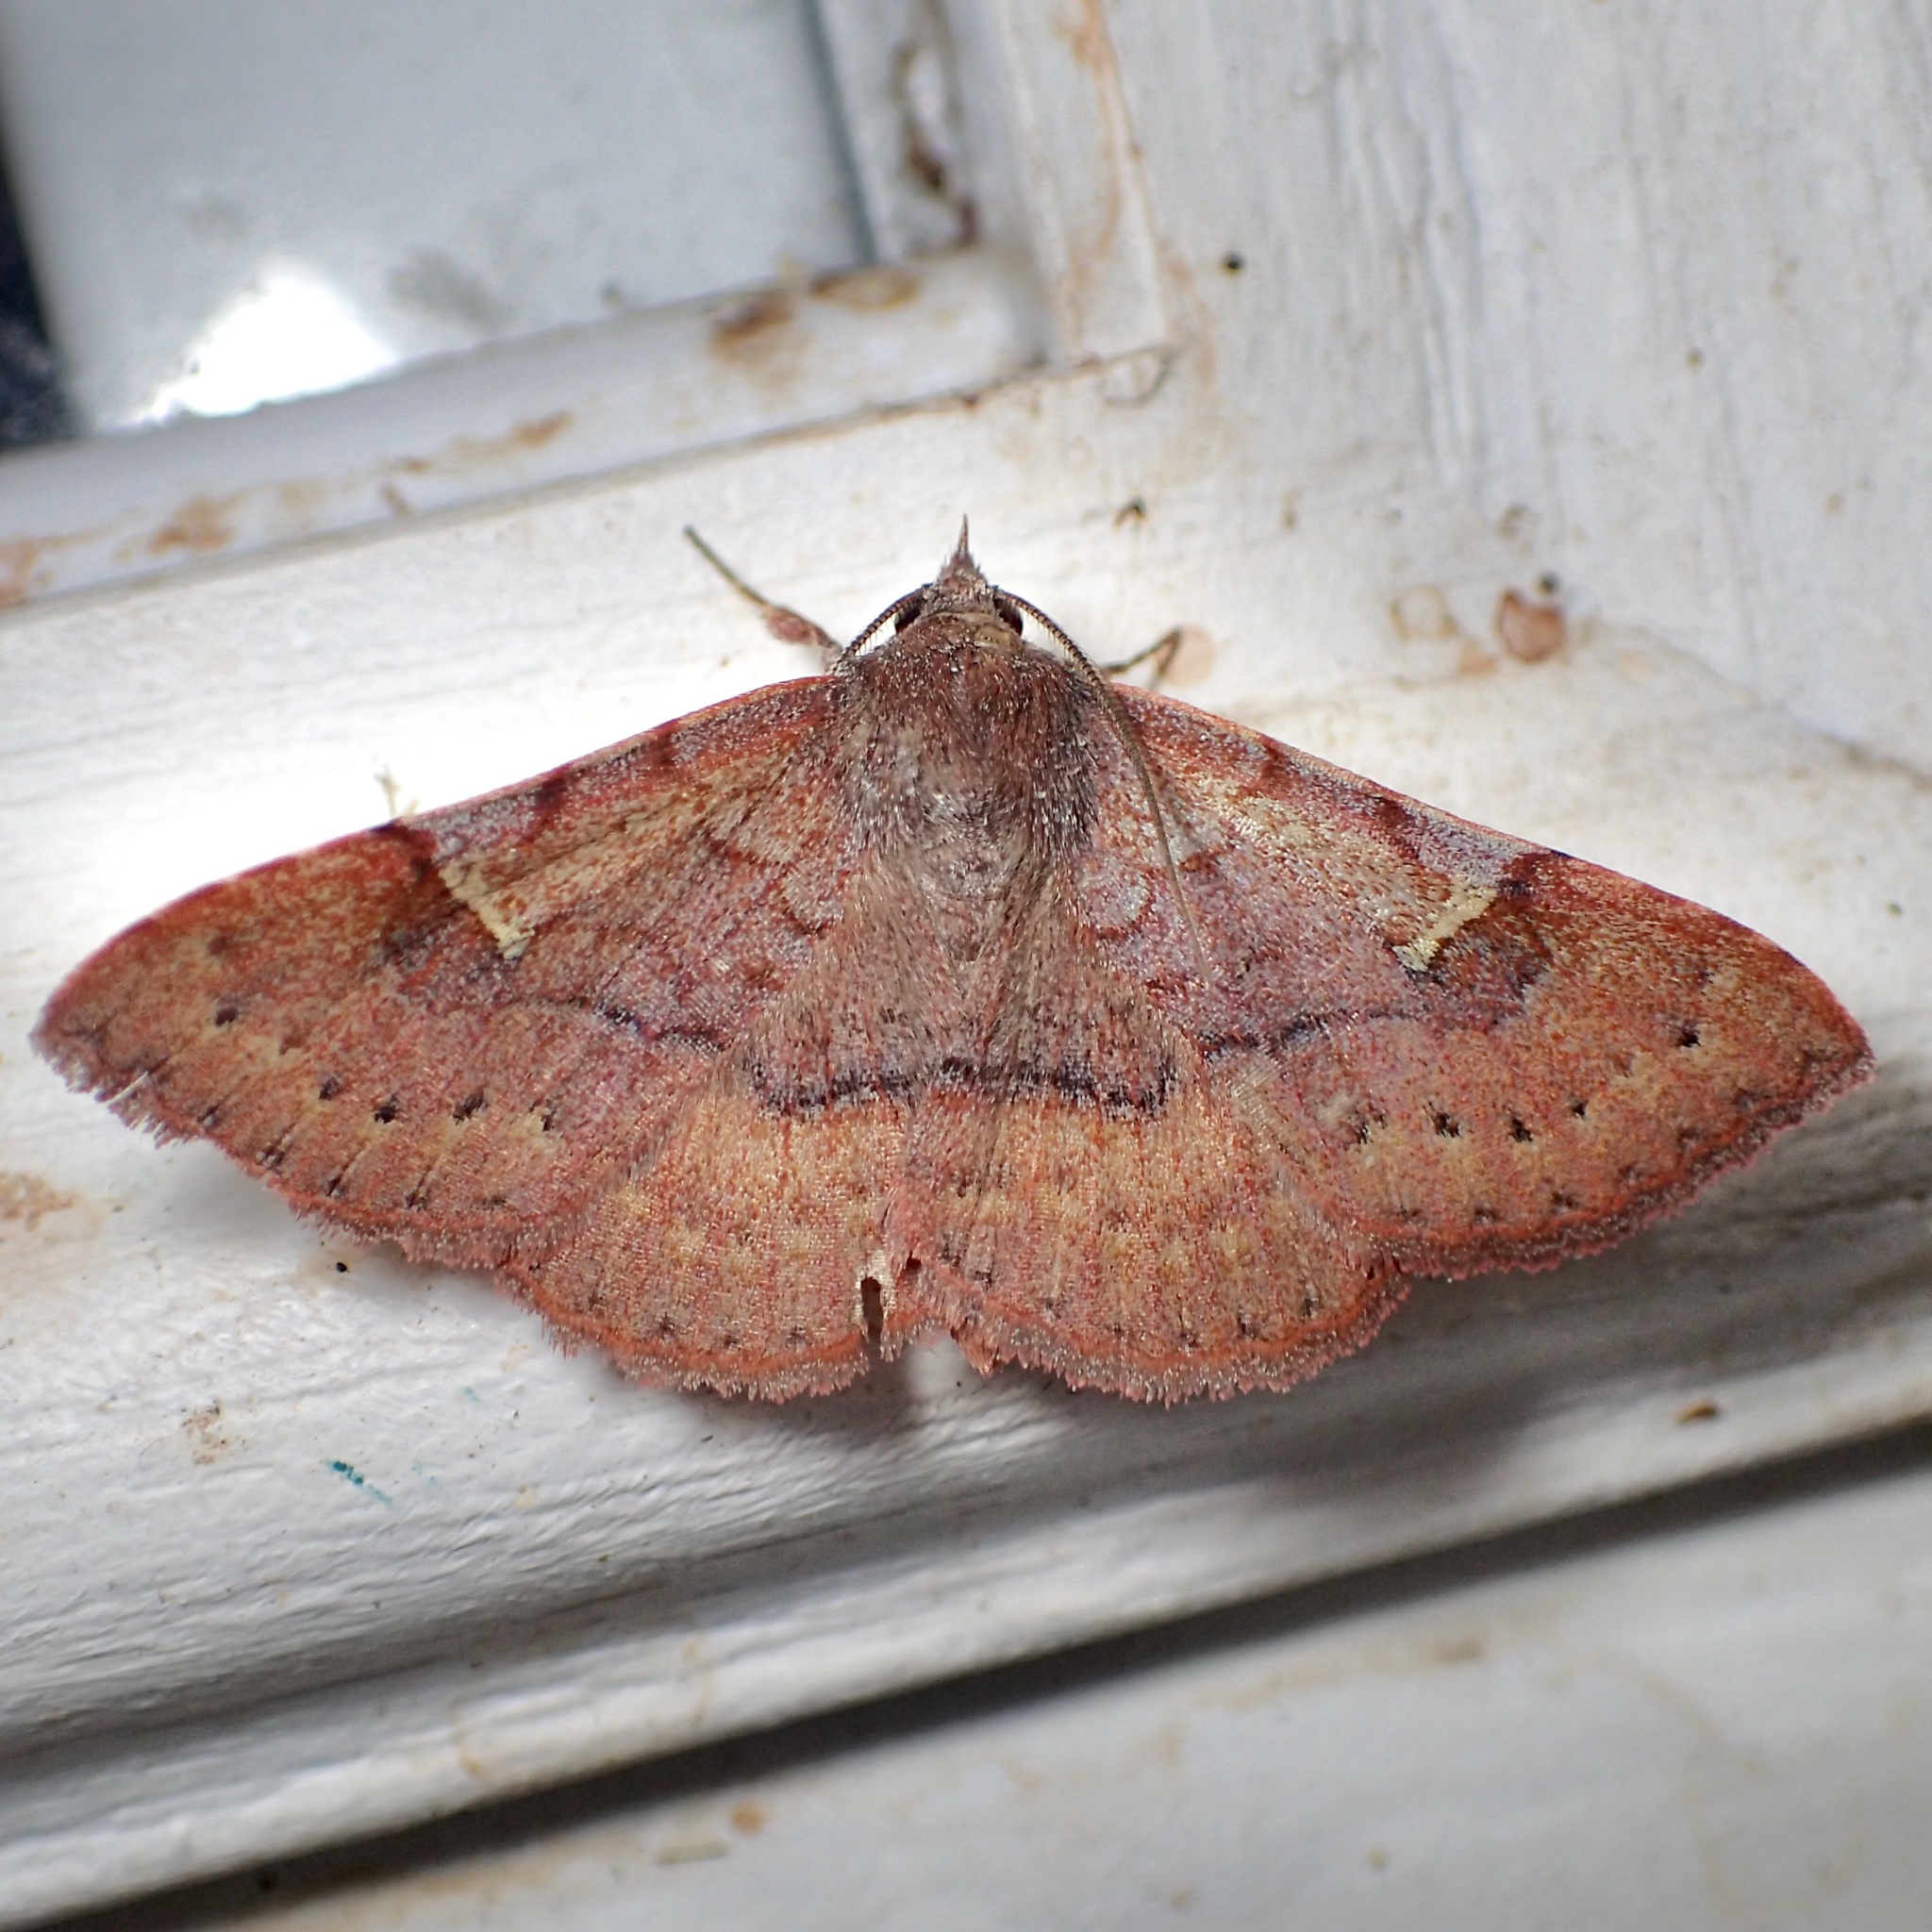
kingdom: Animalia
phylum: Arthropoda
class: Insecta
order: Lepidoptera
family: Erebidae
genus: Azeta
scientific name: Azeta schausi
